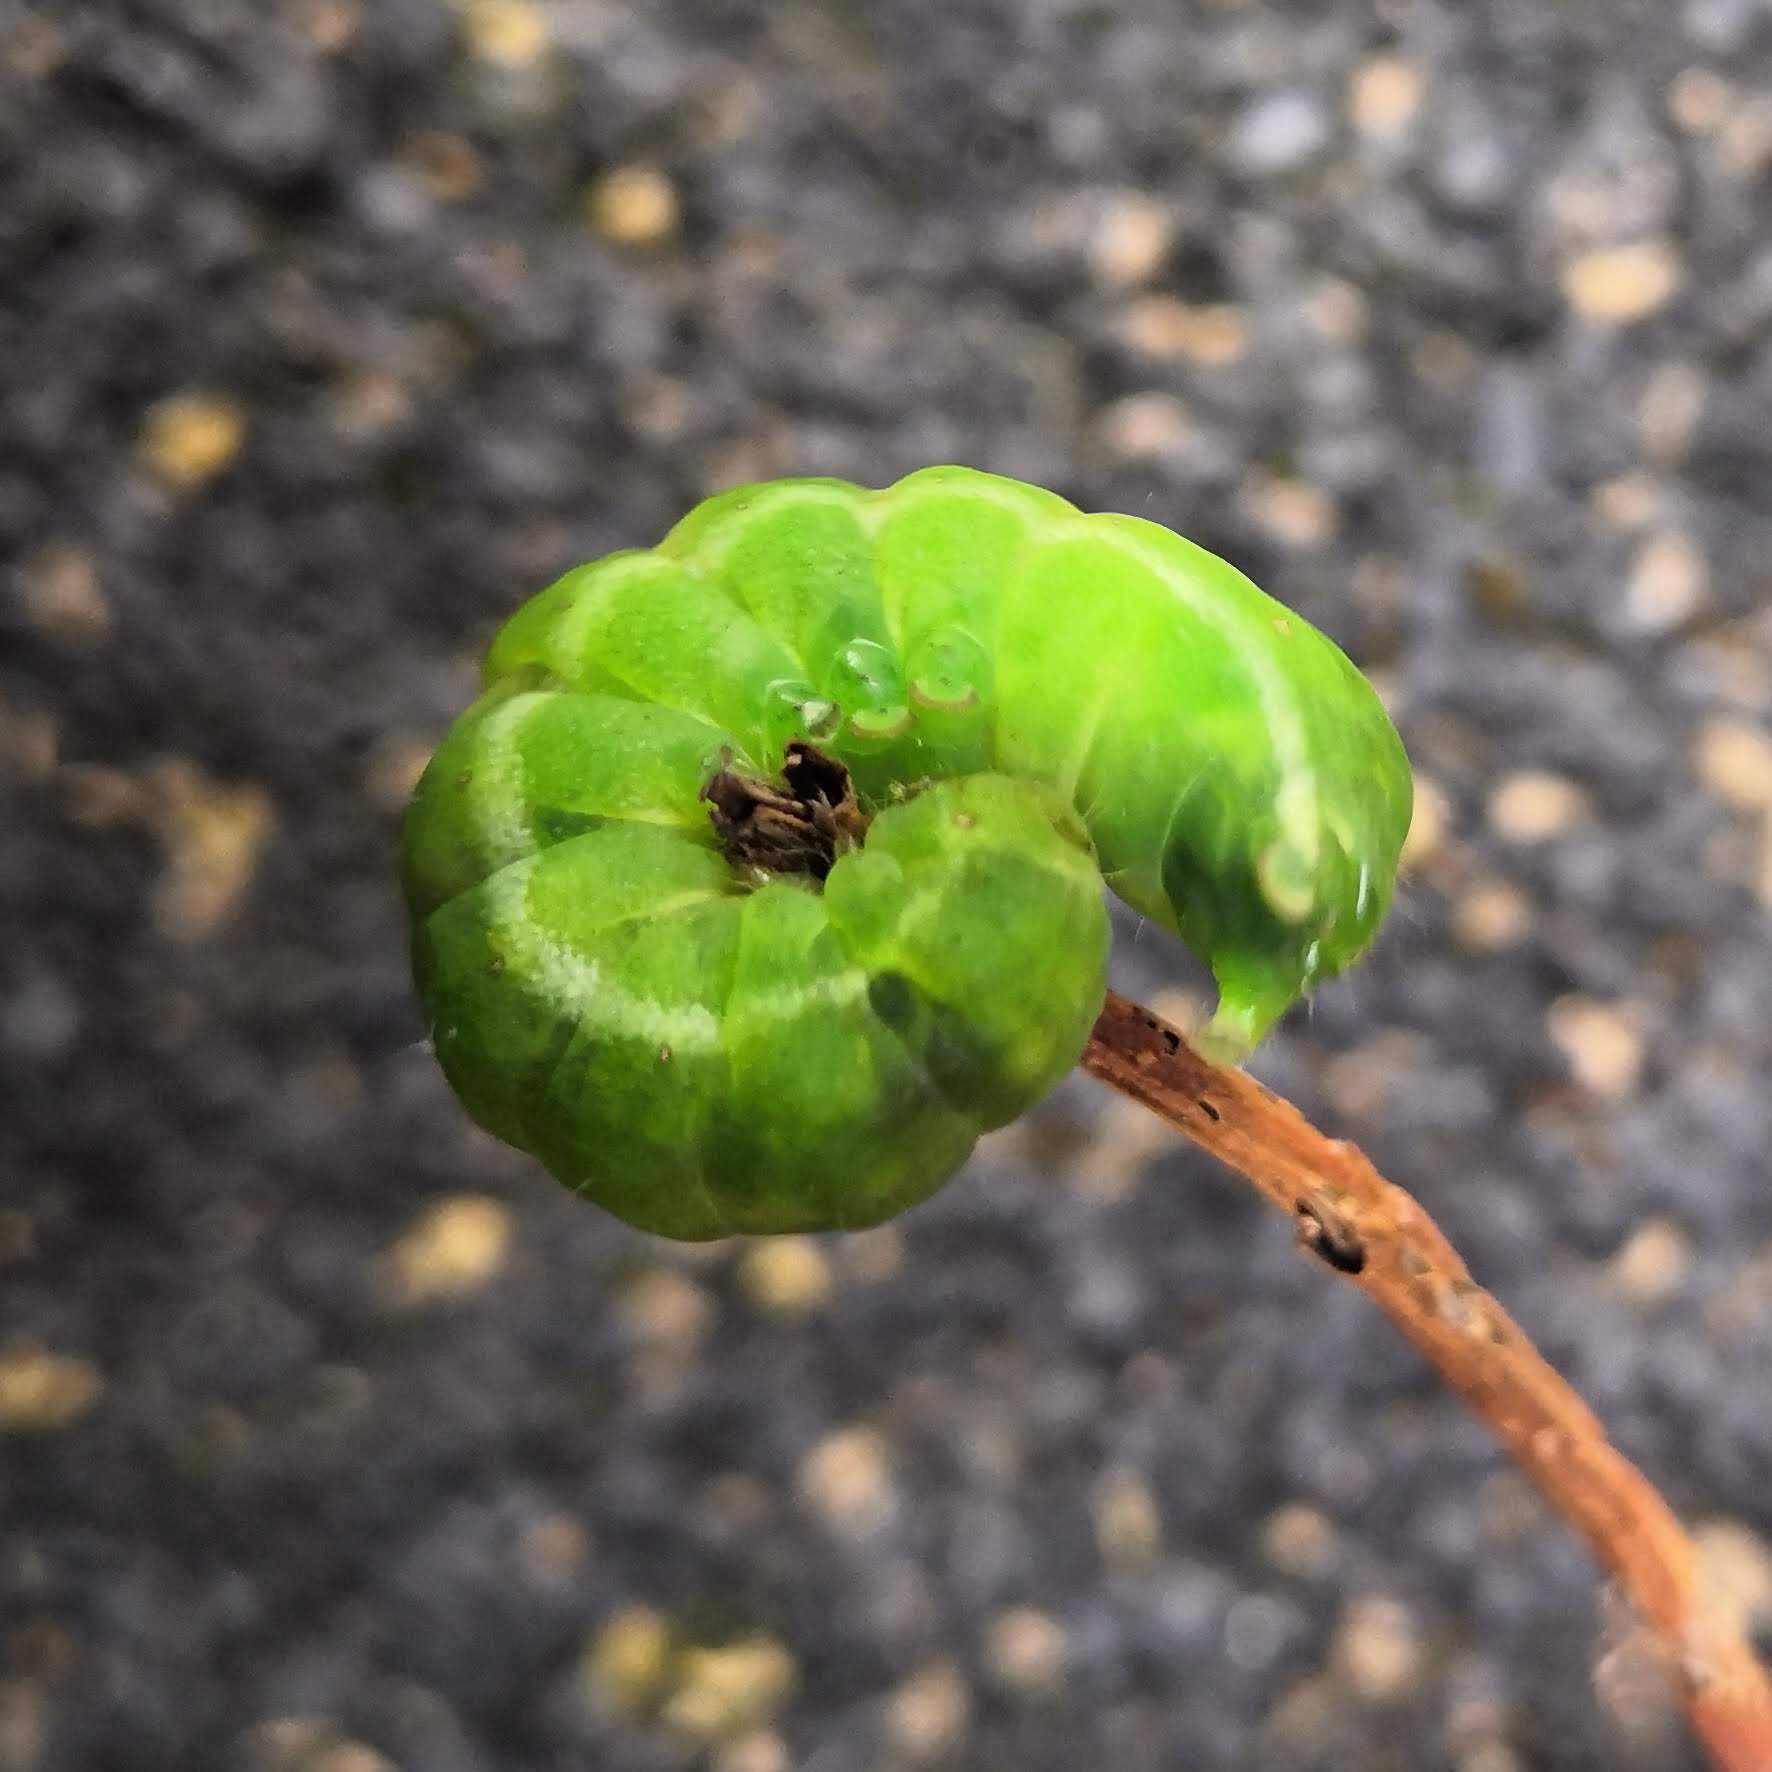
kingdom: Animalia
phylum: Arthropoda
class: Insecta
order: Lepidoptera
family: Noctuidae
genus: Phlogophora
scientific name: Phlogophora meticulosa
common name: Angle shades
